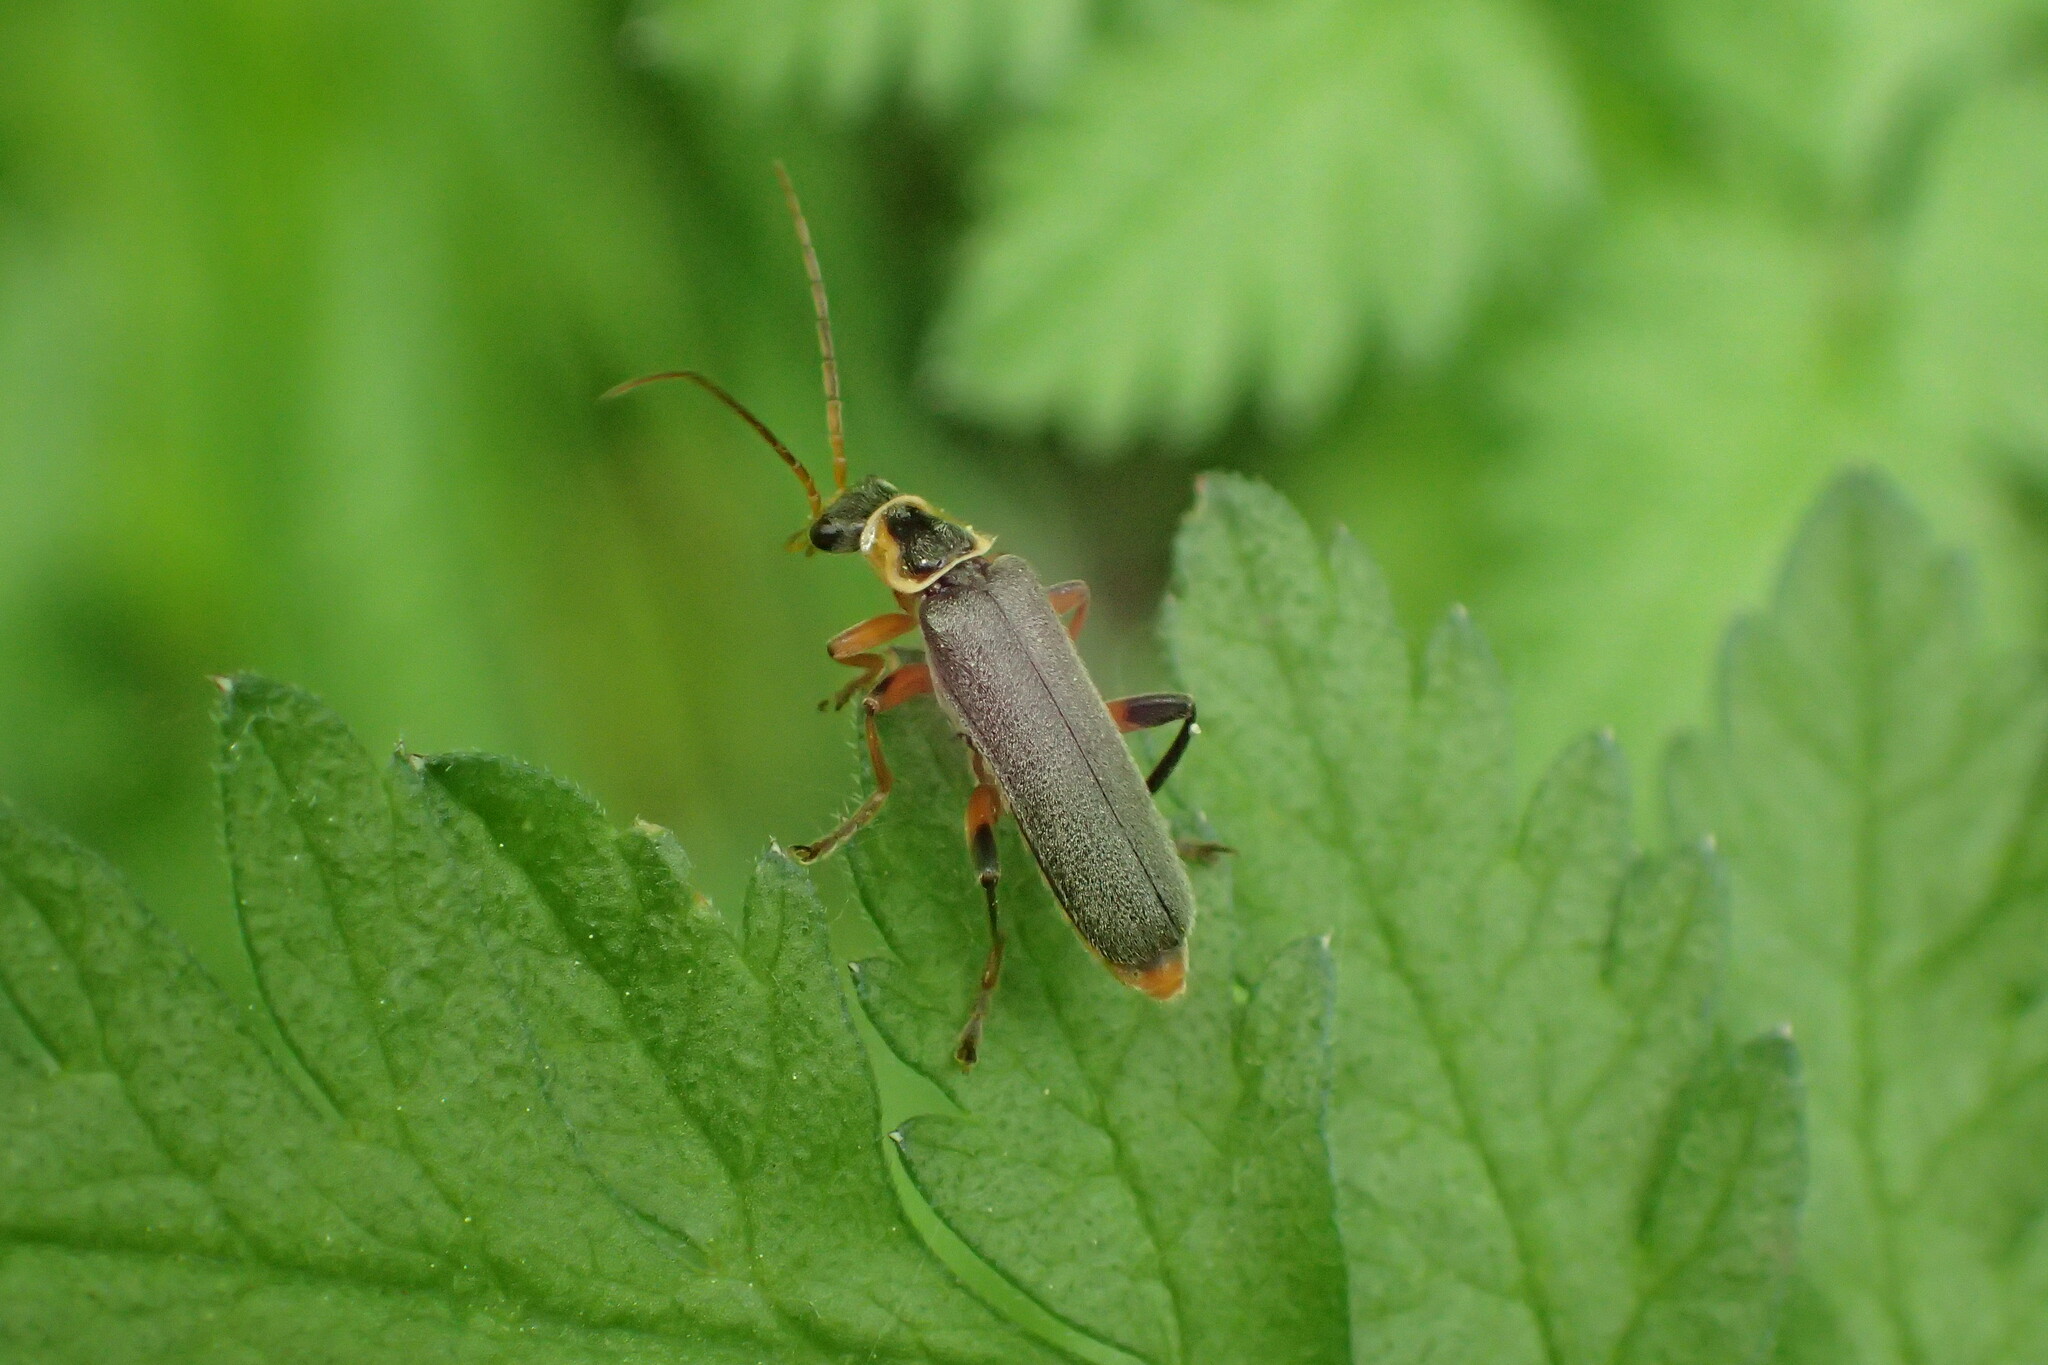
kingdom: Animalia
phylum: Arthropoda
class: Insecta
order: Coleoptera
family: Cantharidae
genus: Cantharis
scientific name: Cantharis nigricans
